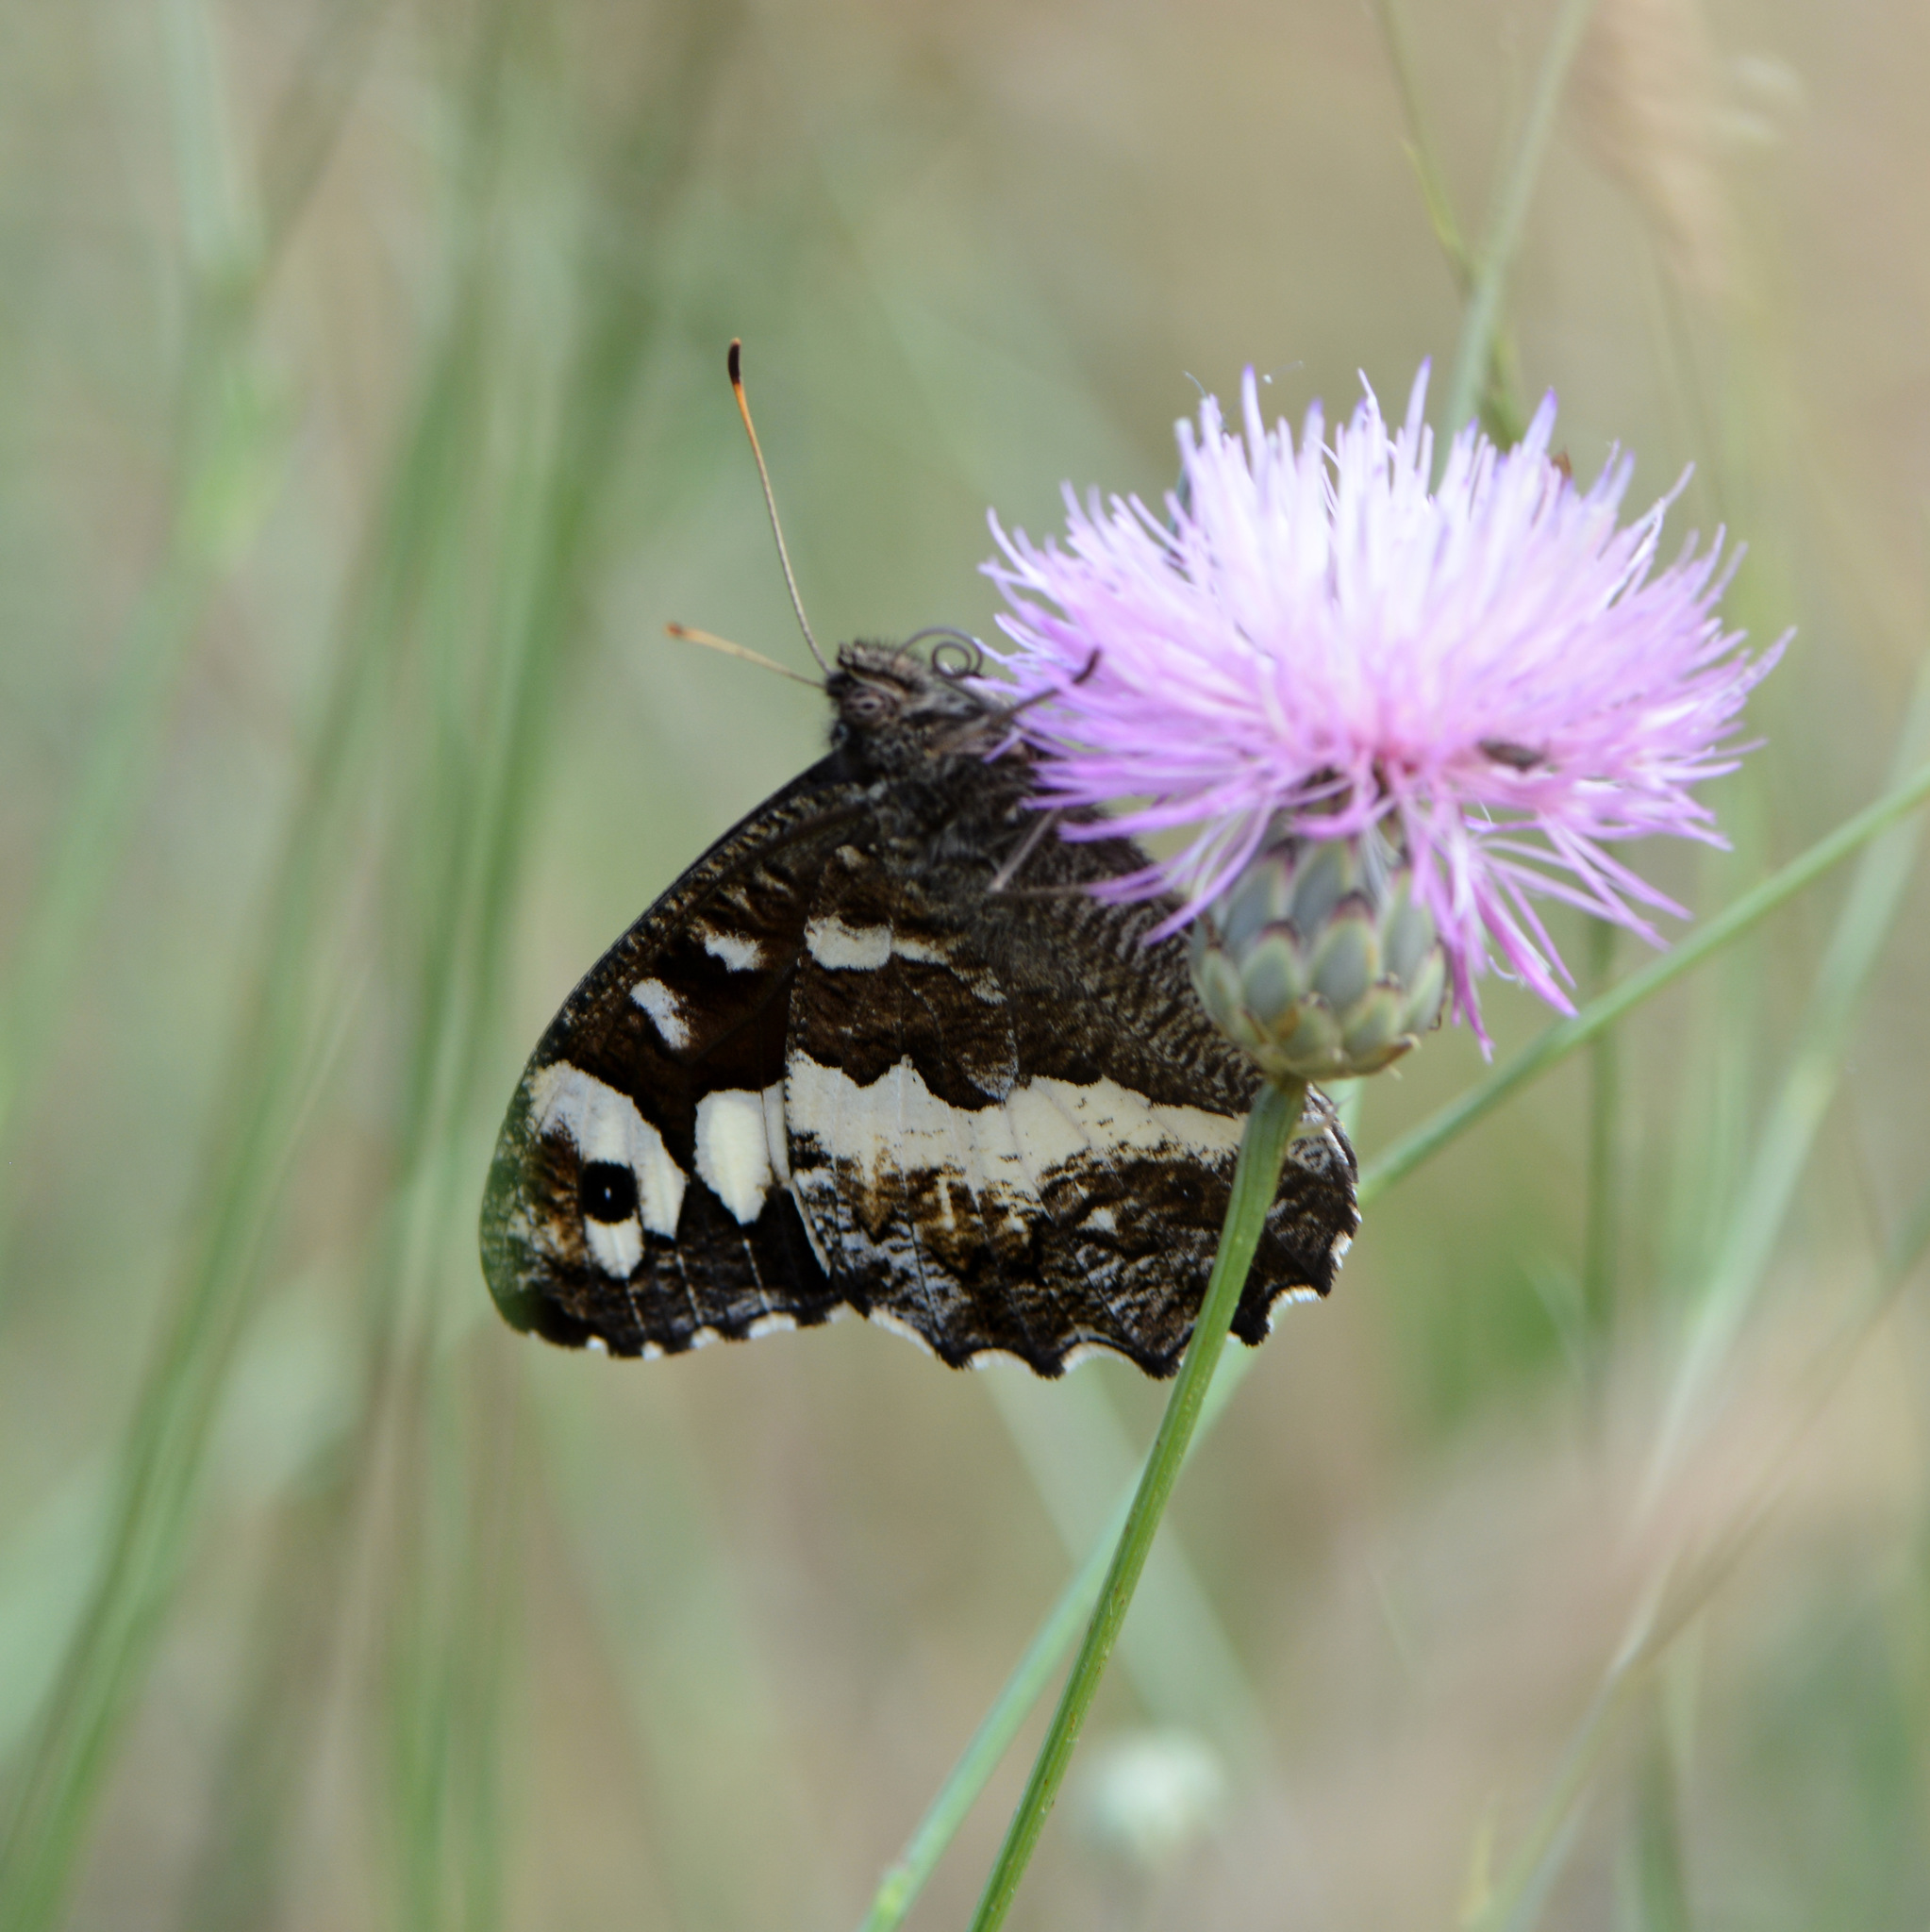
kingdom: Animalia
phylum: Arthropoda
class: Insecta
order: Lepidoptera
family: Lycaenidae
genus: Loweia
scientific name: Loweia tityrus
